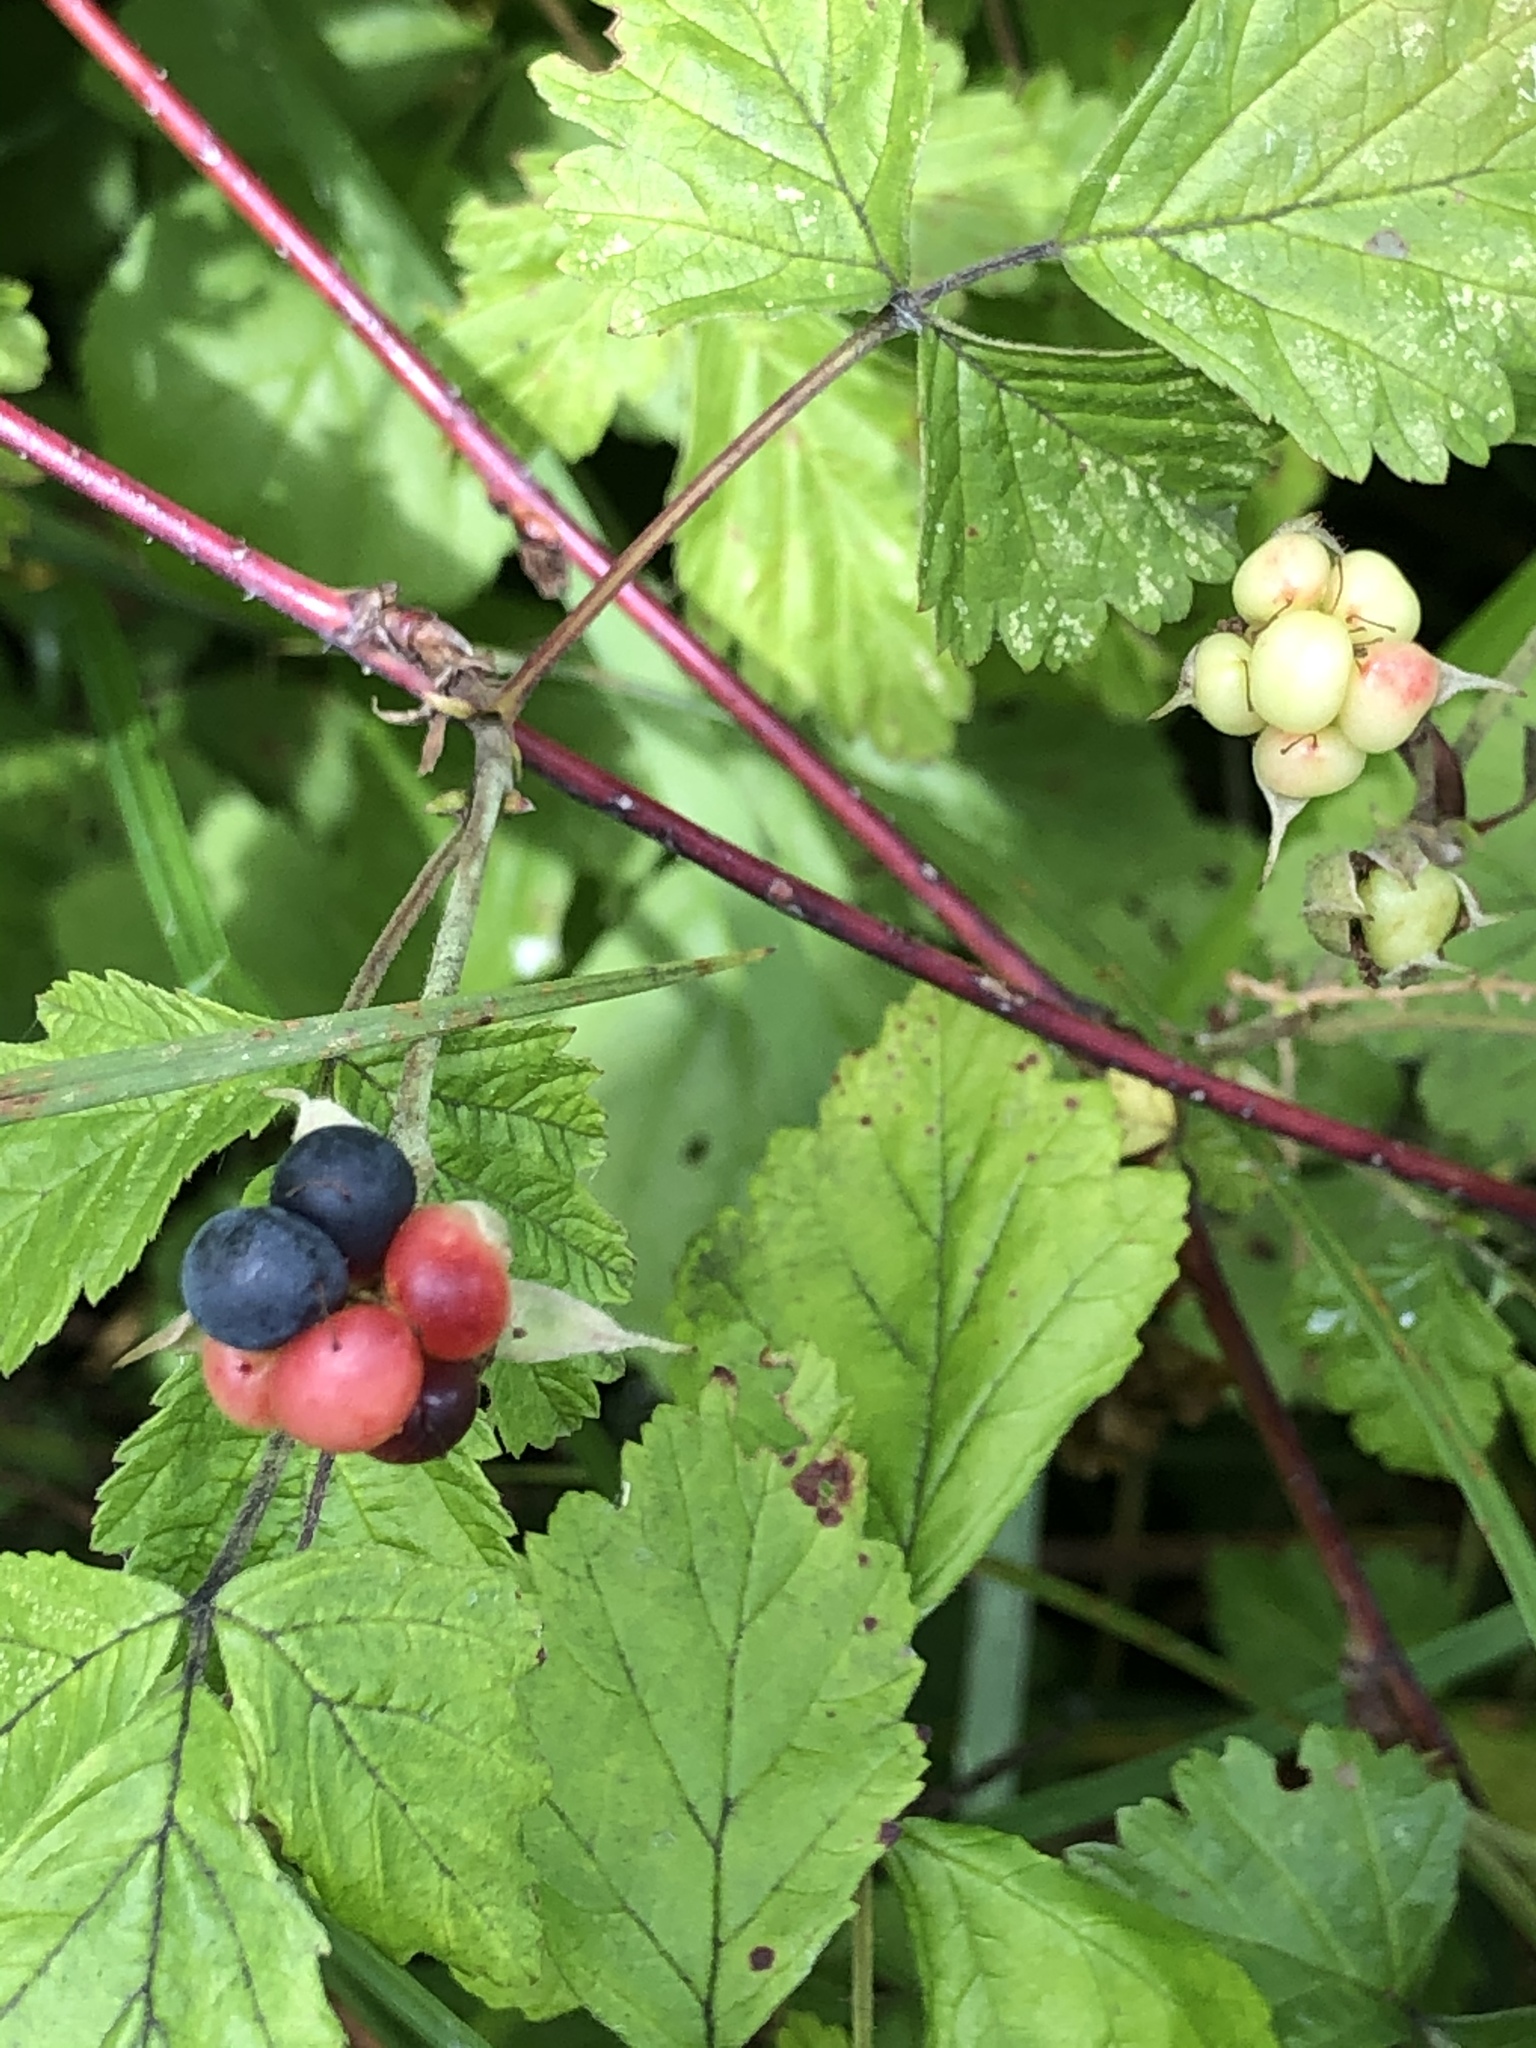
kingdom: Plantae
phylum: Tracheophyta
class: Magnoliopsida
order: Rosales
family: Rosaceae
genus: Rubus
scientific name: Rubus caesius
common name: Dewberry
